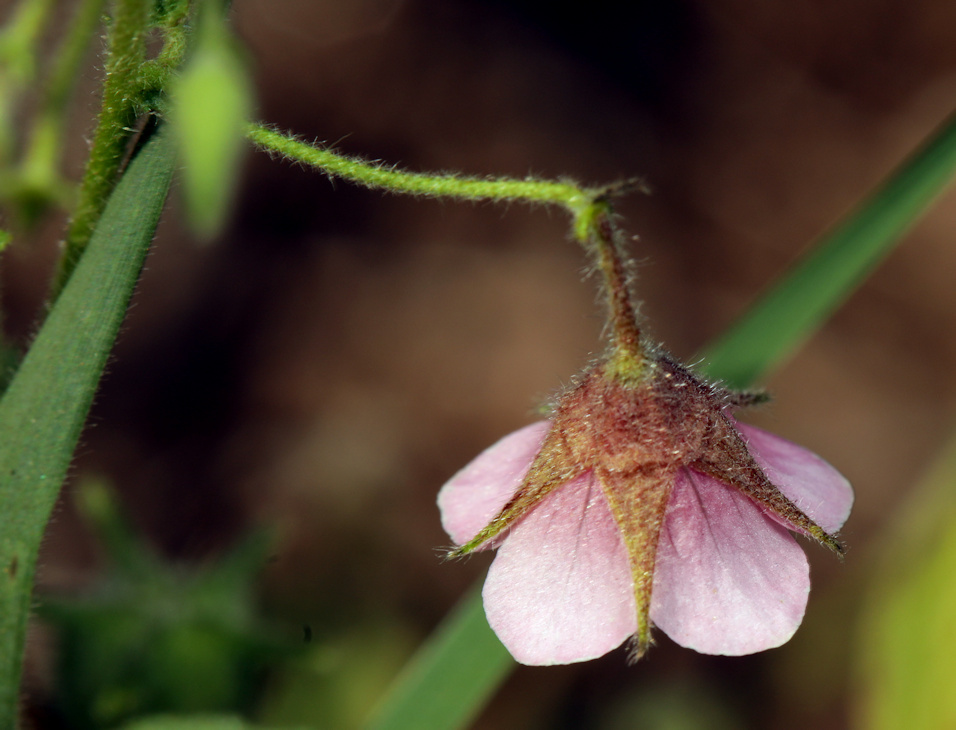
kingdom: Plantae
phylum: Tracheophyta
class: Magnoliopsida
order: Malvales
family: Malvaceae
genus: Hermannia
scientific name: Hermannia boraginiflora
